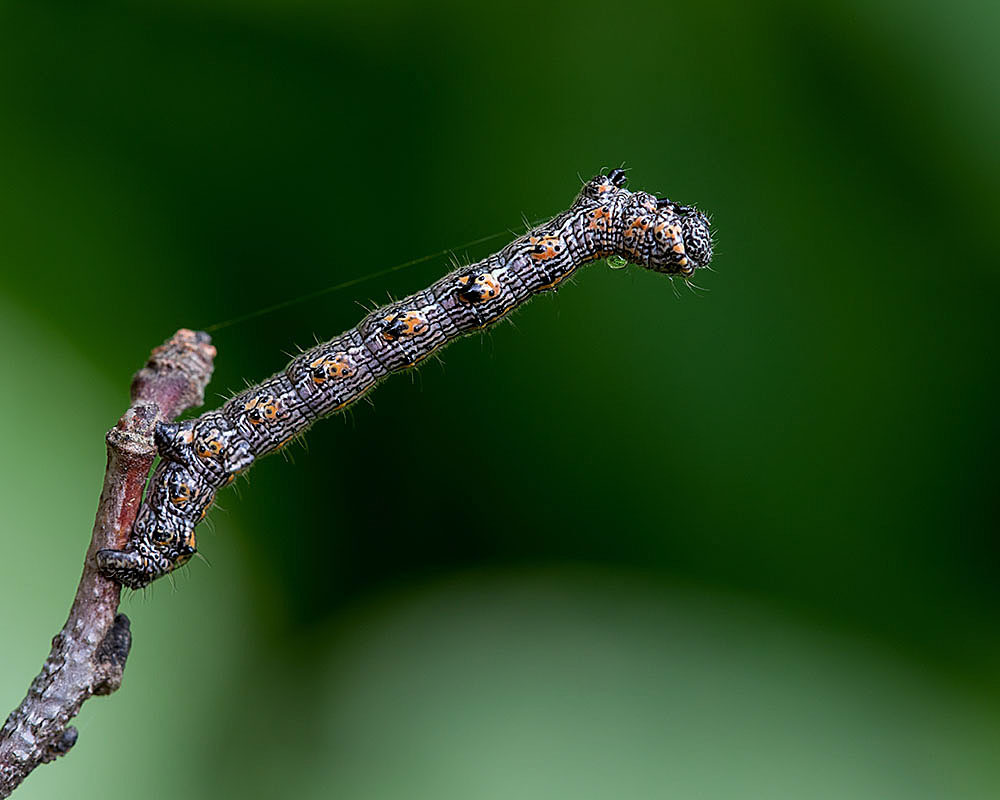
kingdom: Animalia
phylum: Arthropoda
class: Insecta
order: Lepidoptera
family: Geometridae
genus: Phigalia
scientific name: Phigalia titea
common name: Spiny looper
